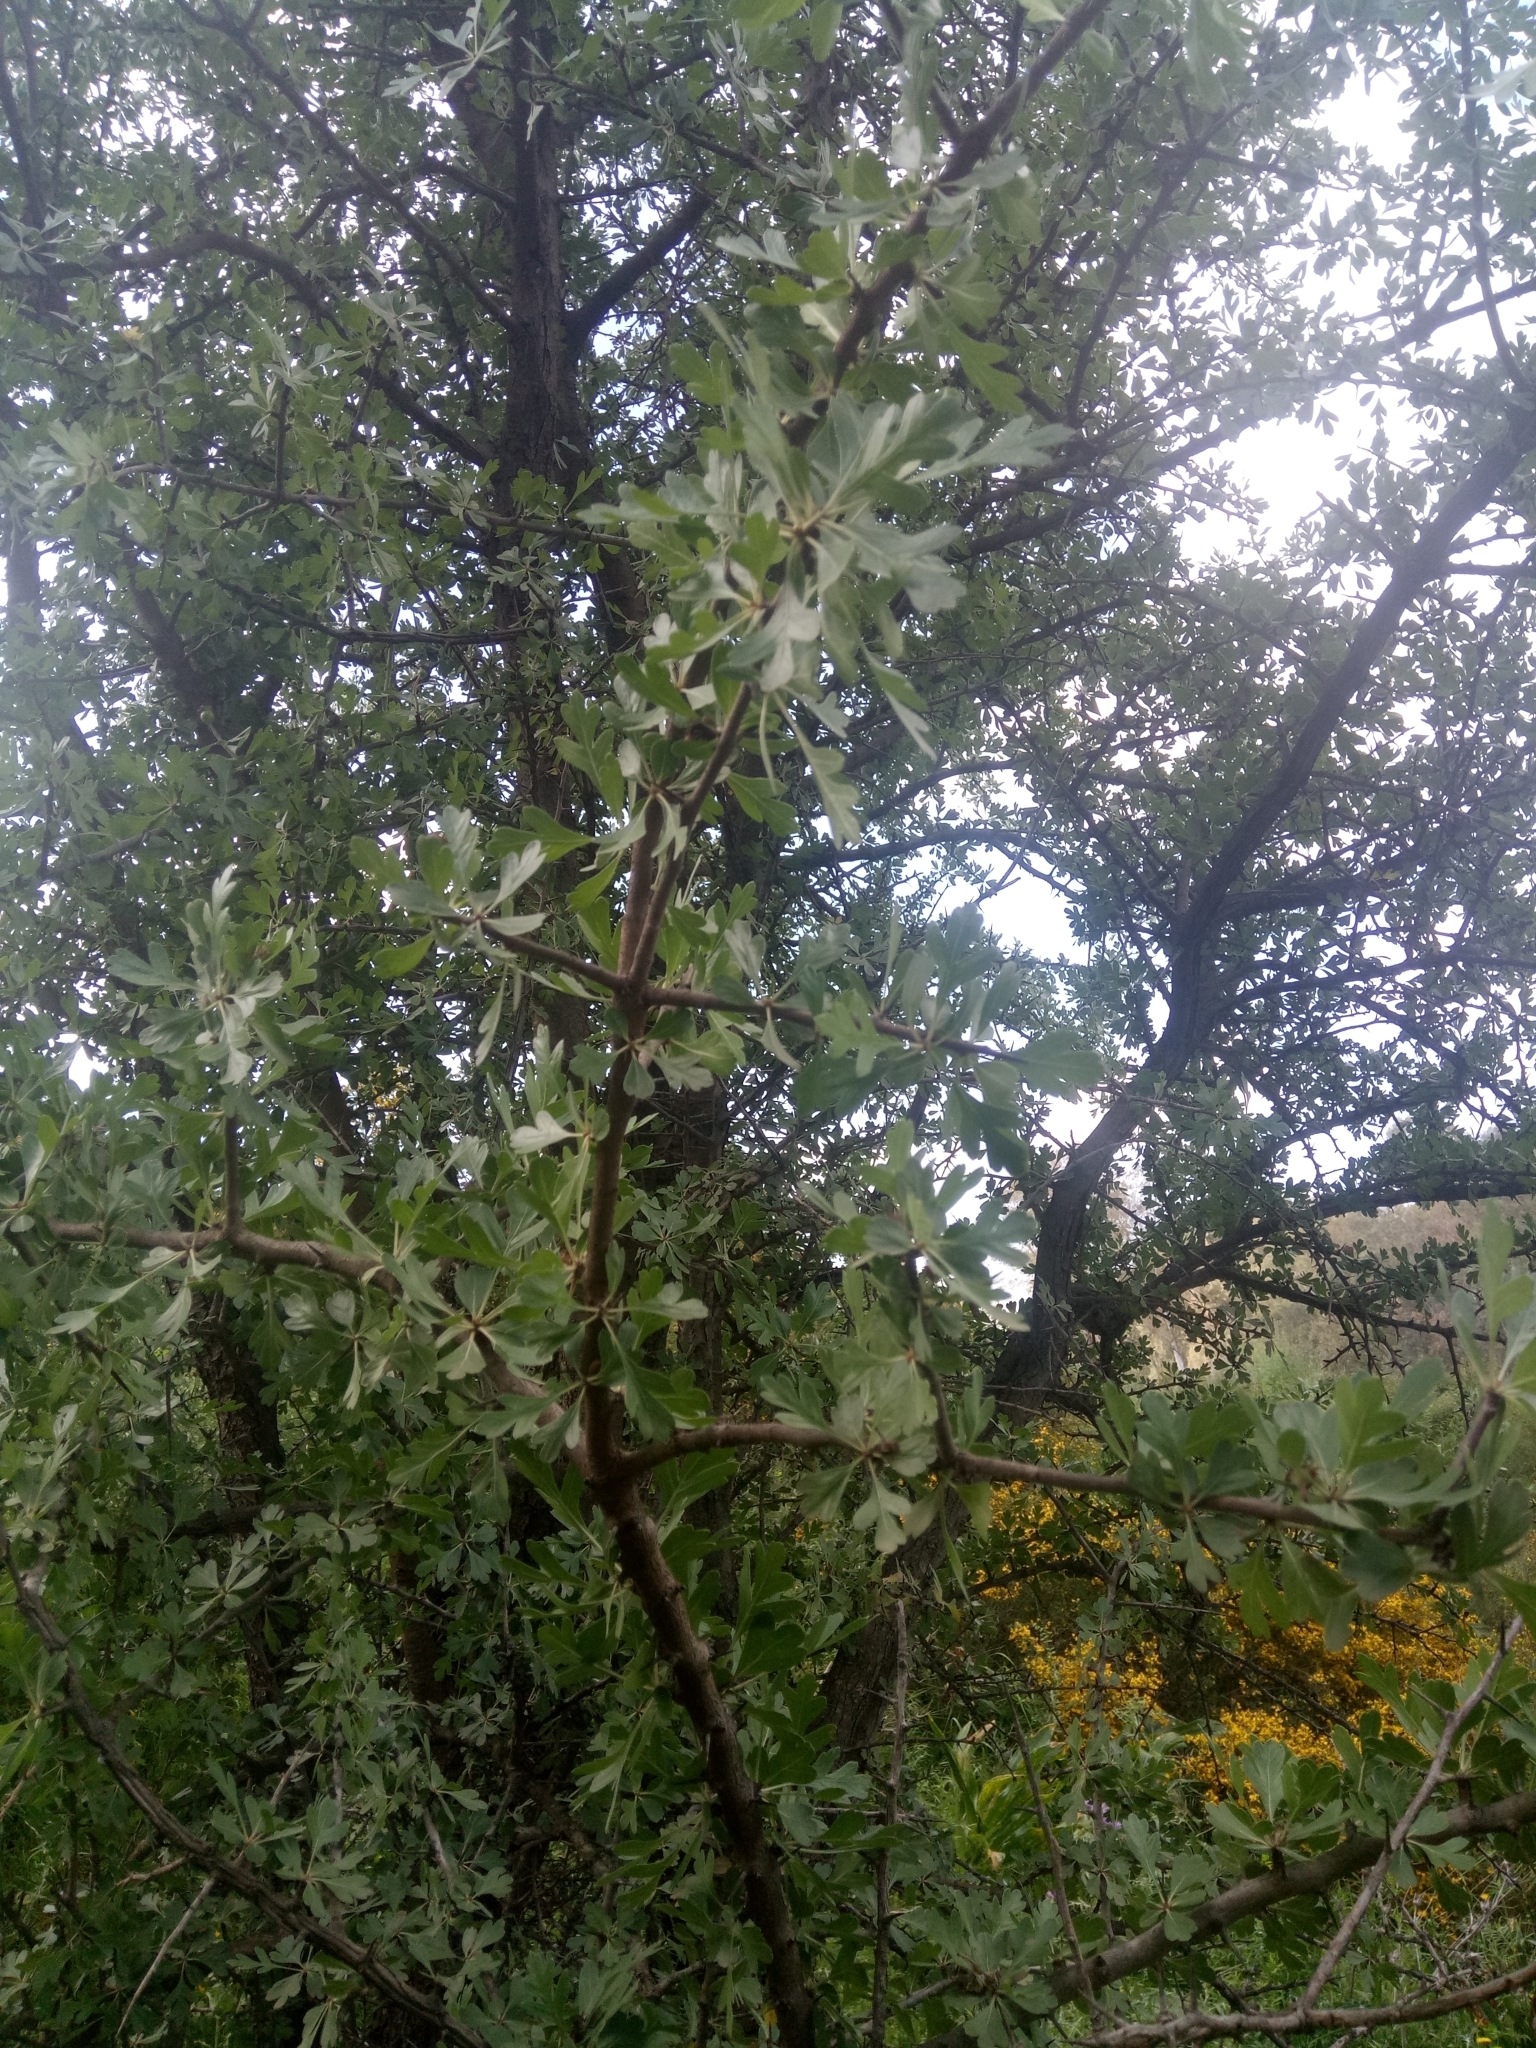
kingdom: Plantae
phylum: Tracheophyta
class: Magnoliopsida
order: Rosales
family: Rosaceae
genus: Crataegus
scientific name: Crataegus monogyna
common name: Hawthorn
